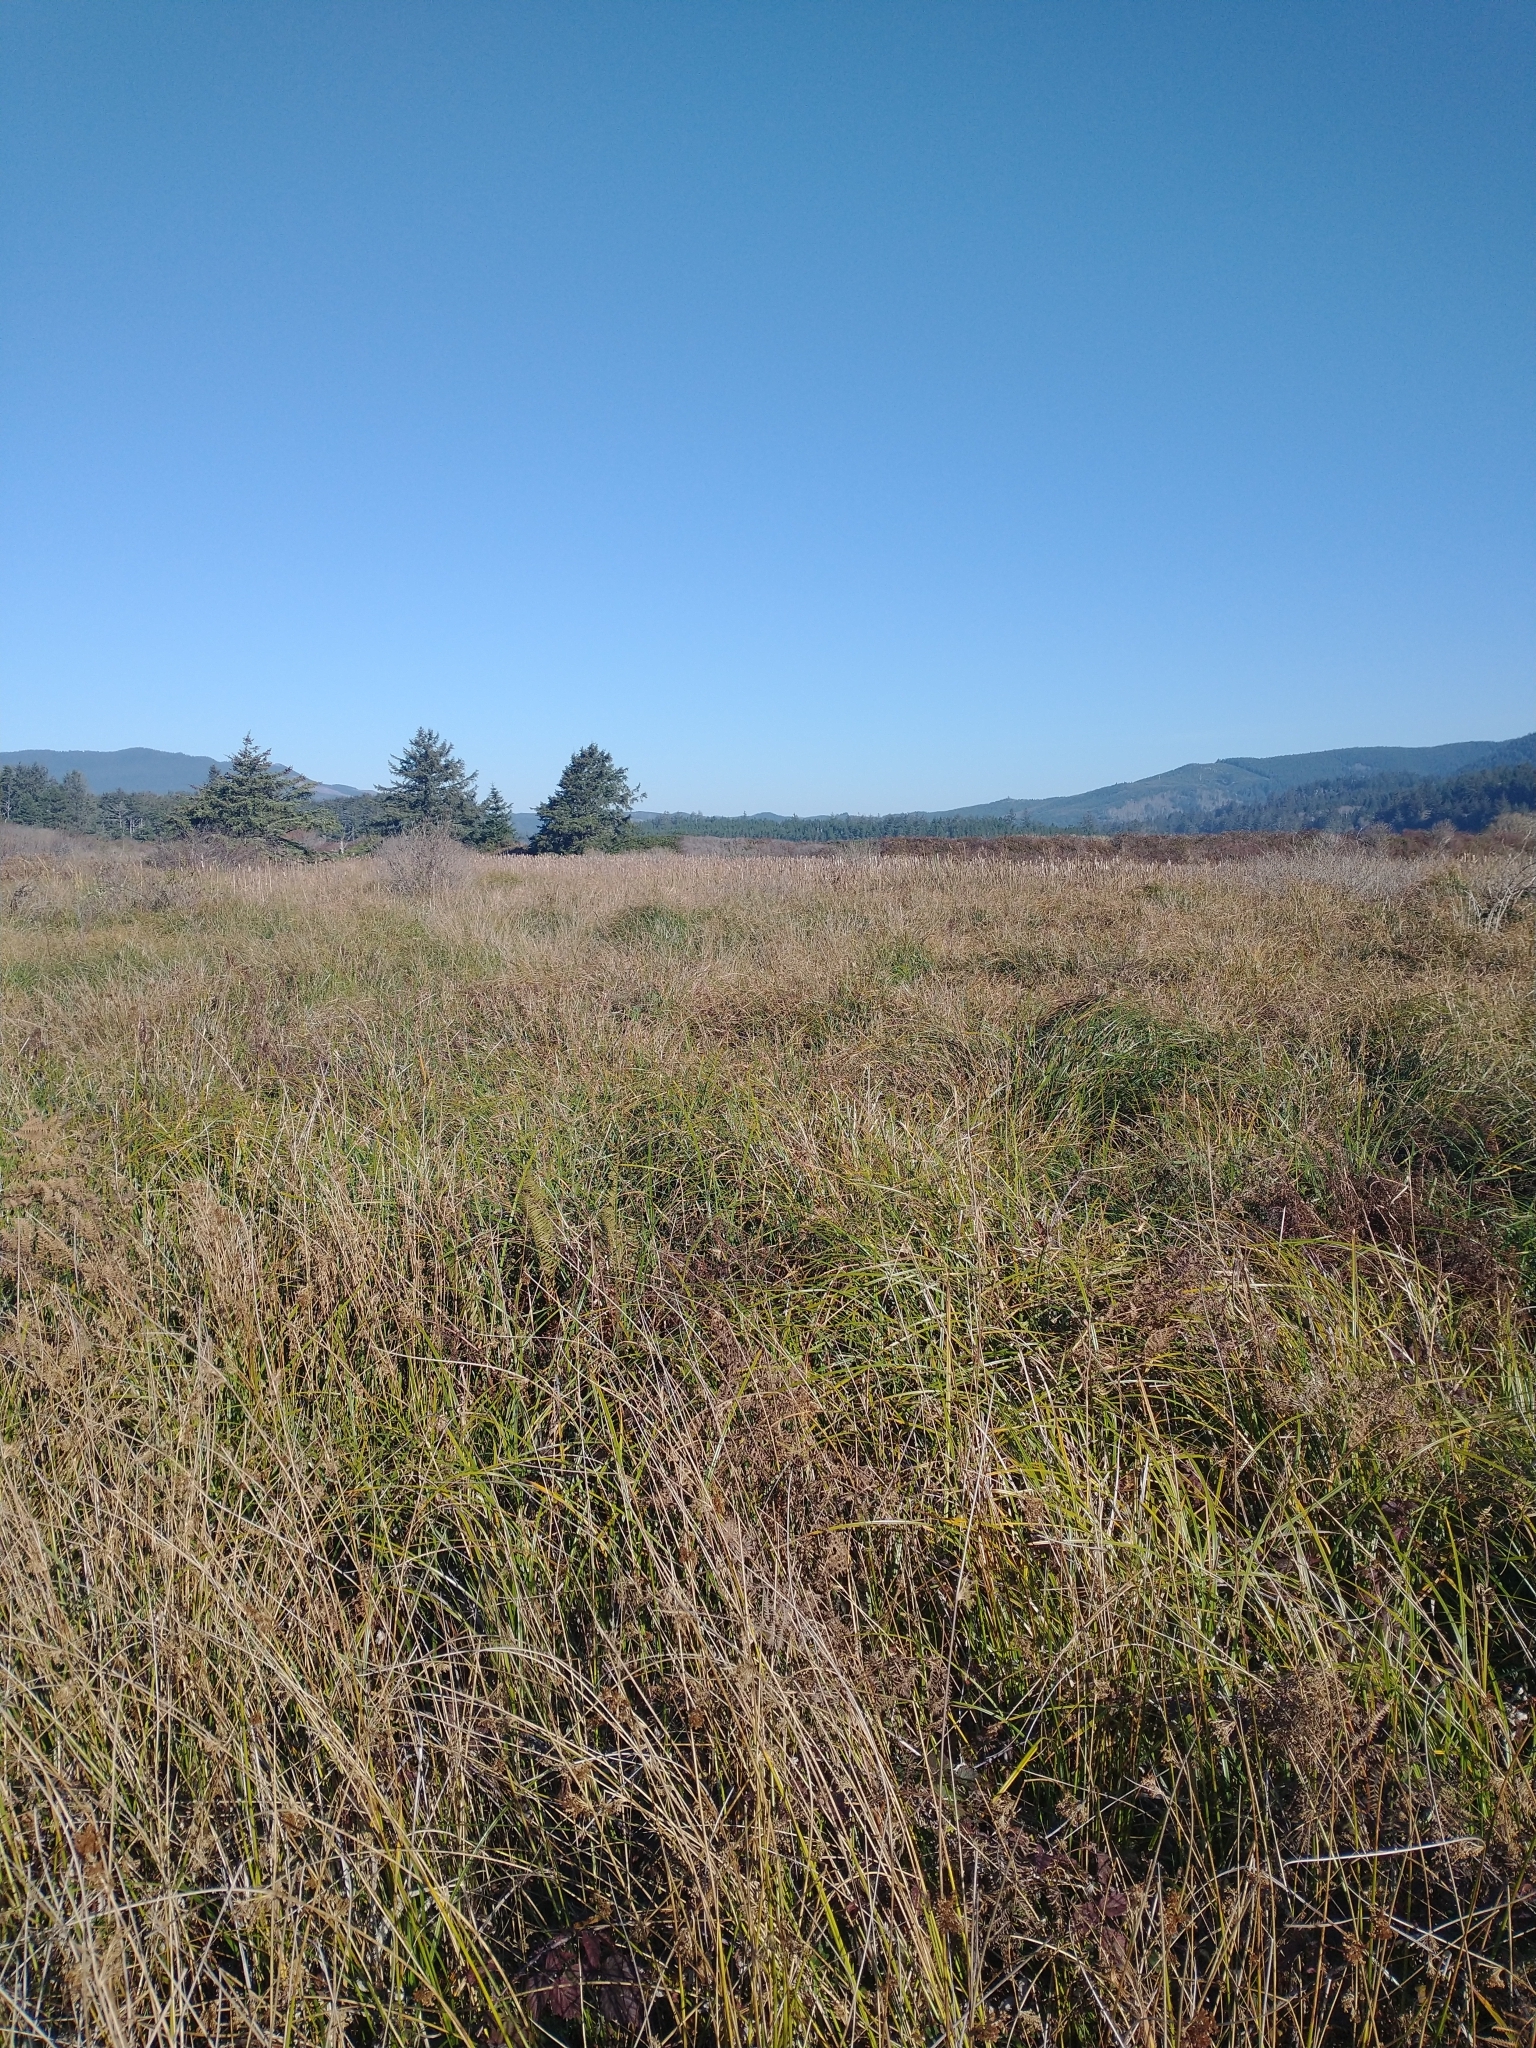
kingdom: Plantae
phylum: Tracheophyta
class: Pinopsida
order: Pinales
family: Pinaceae
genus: Picea
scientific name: Picea sitchensis
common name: Sitka spruce
